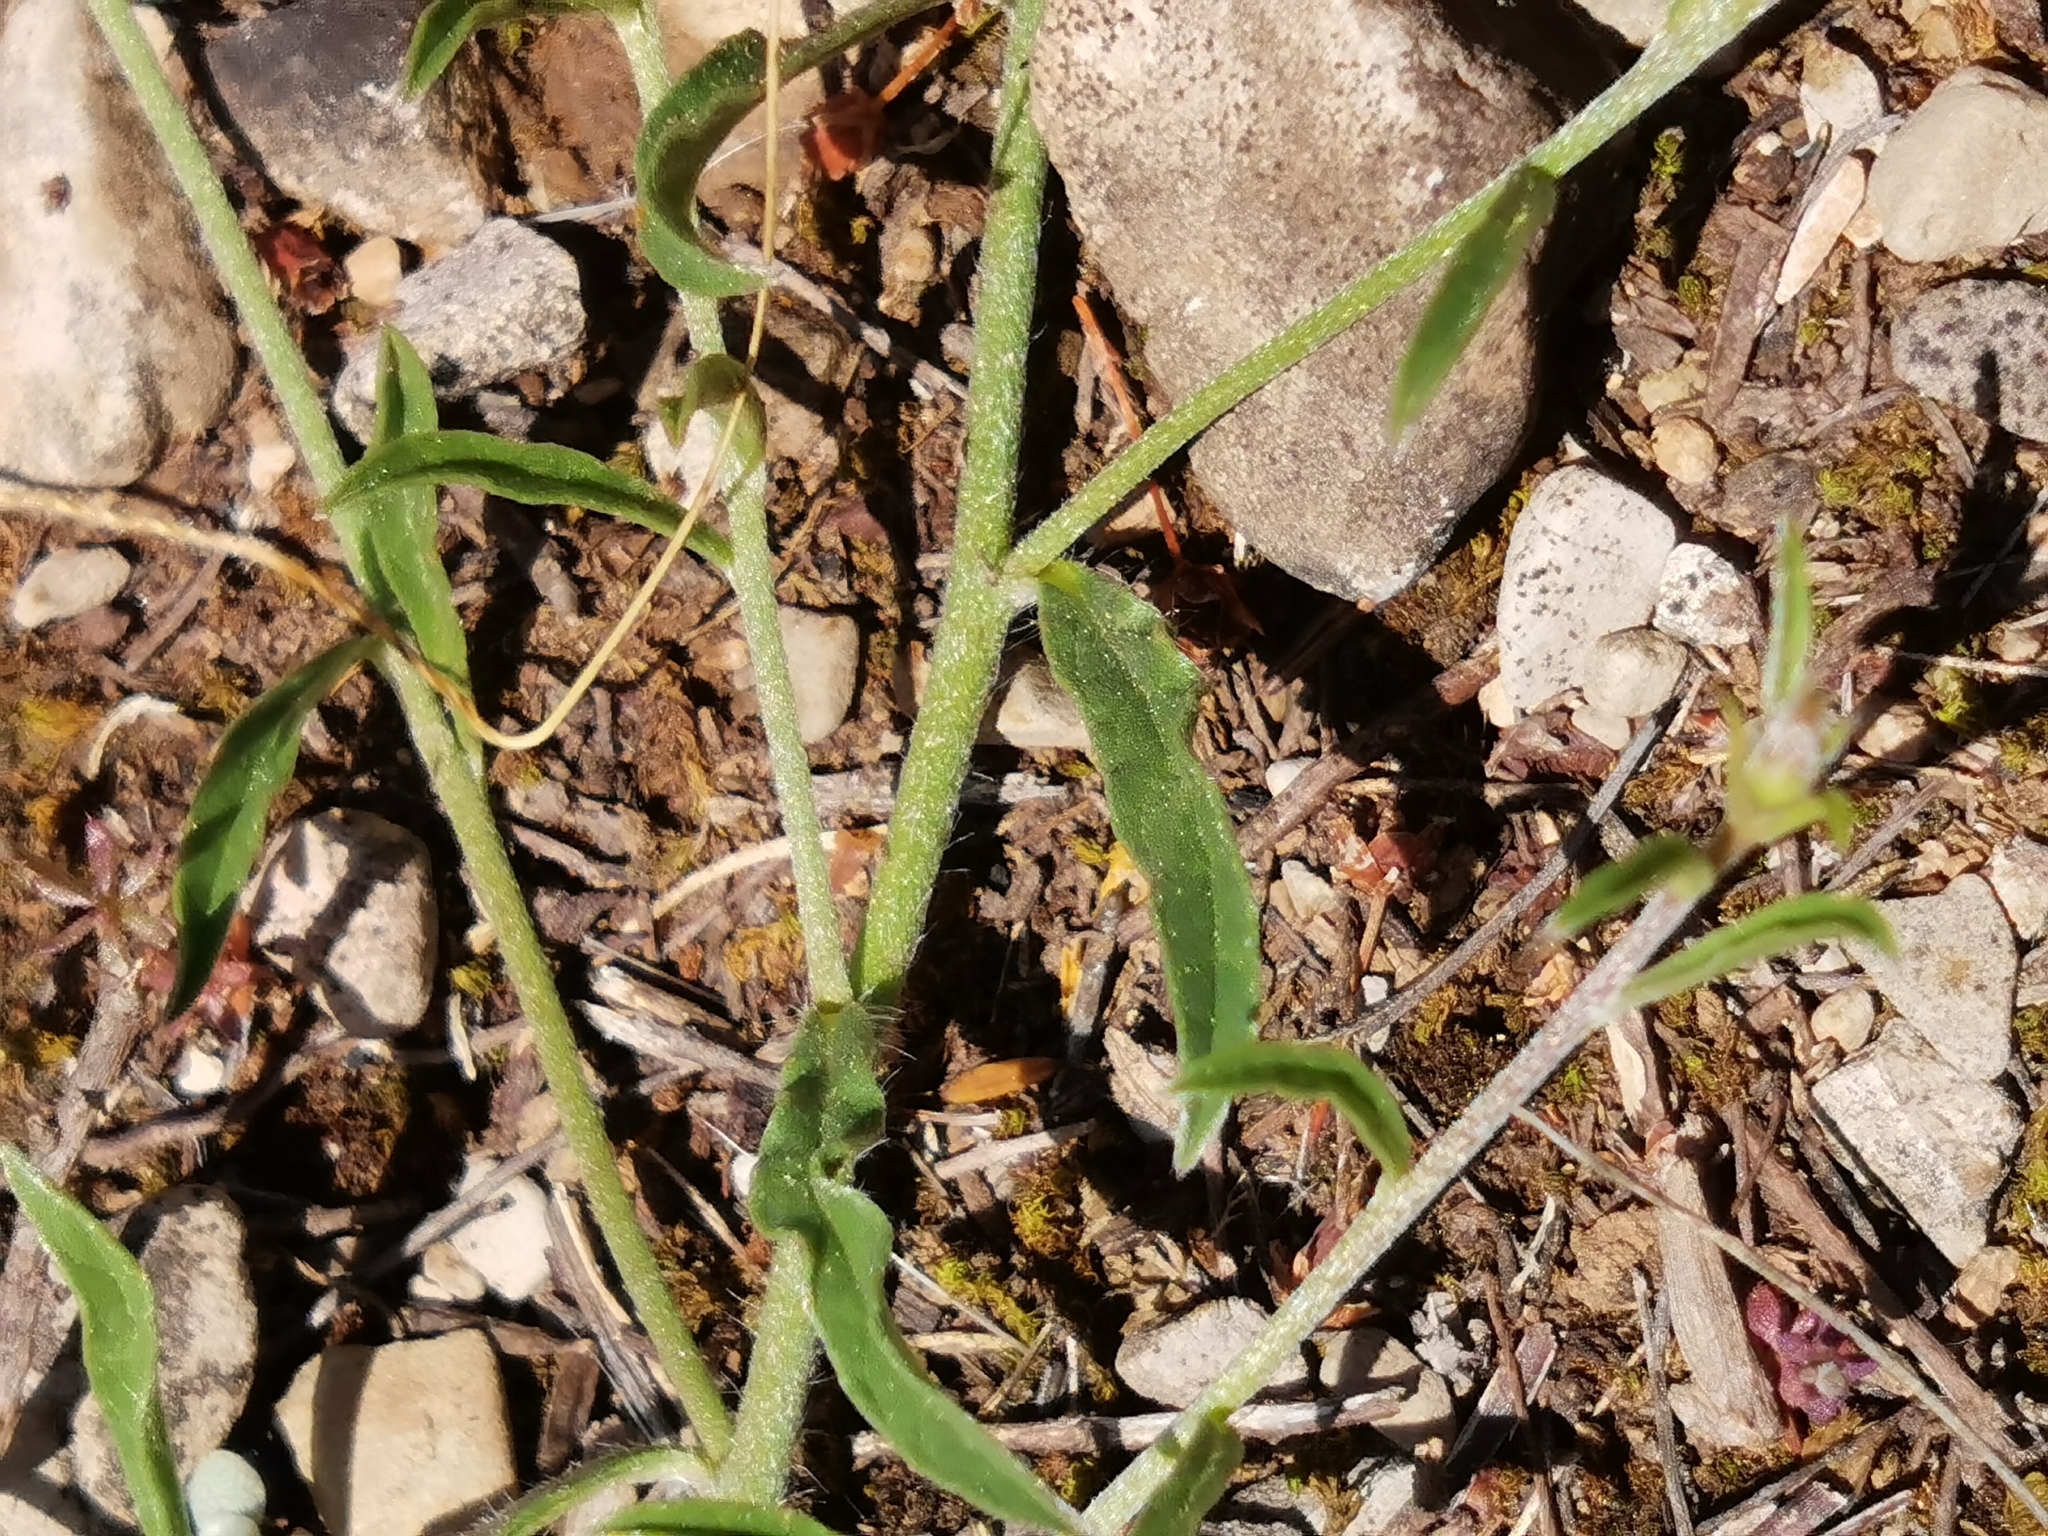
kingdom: Plantae
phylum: Tracheophyta
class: Magnoliopsida
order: Solanales
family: Convolvulaceae
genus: Convolvulus
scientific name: Convolvulus cantabrica
